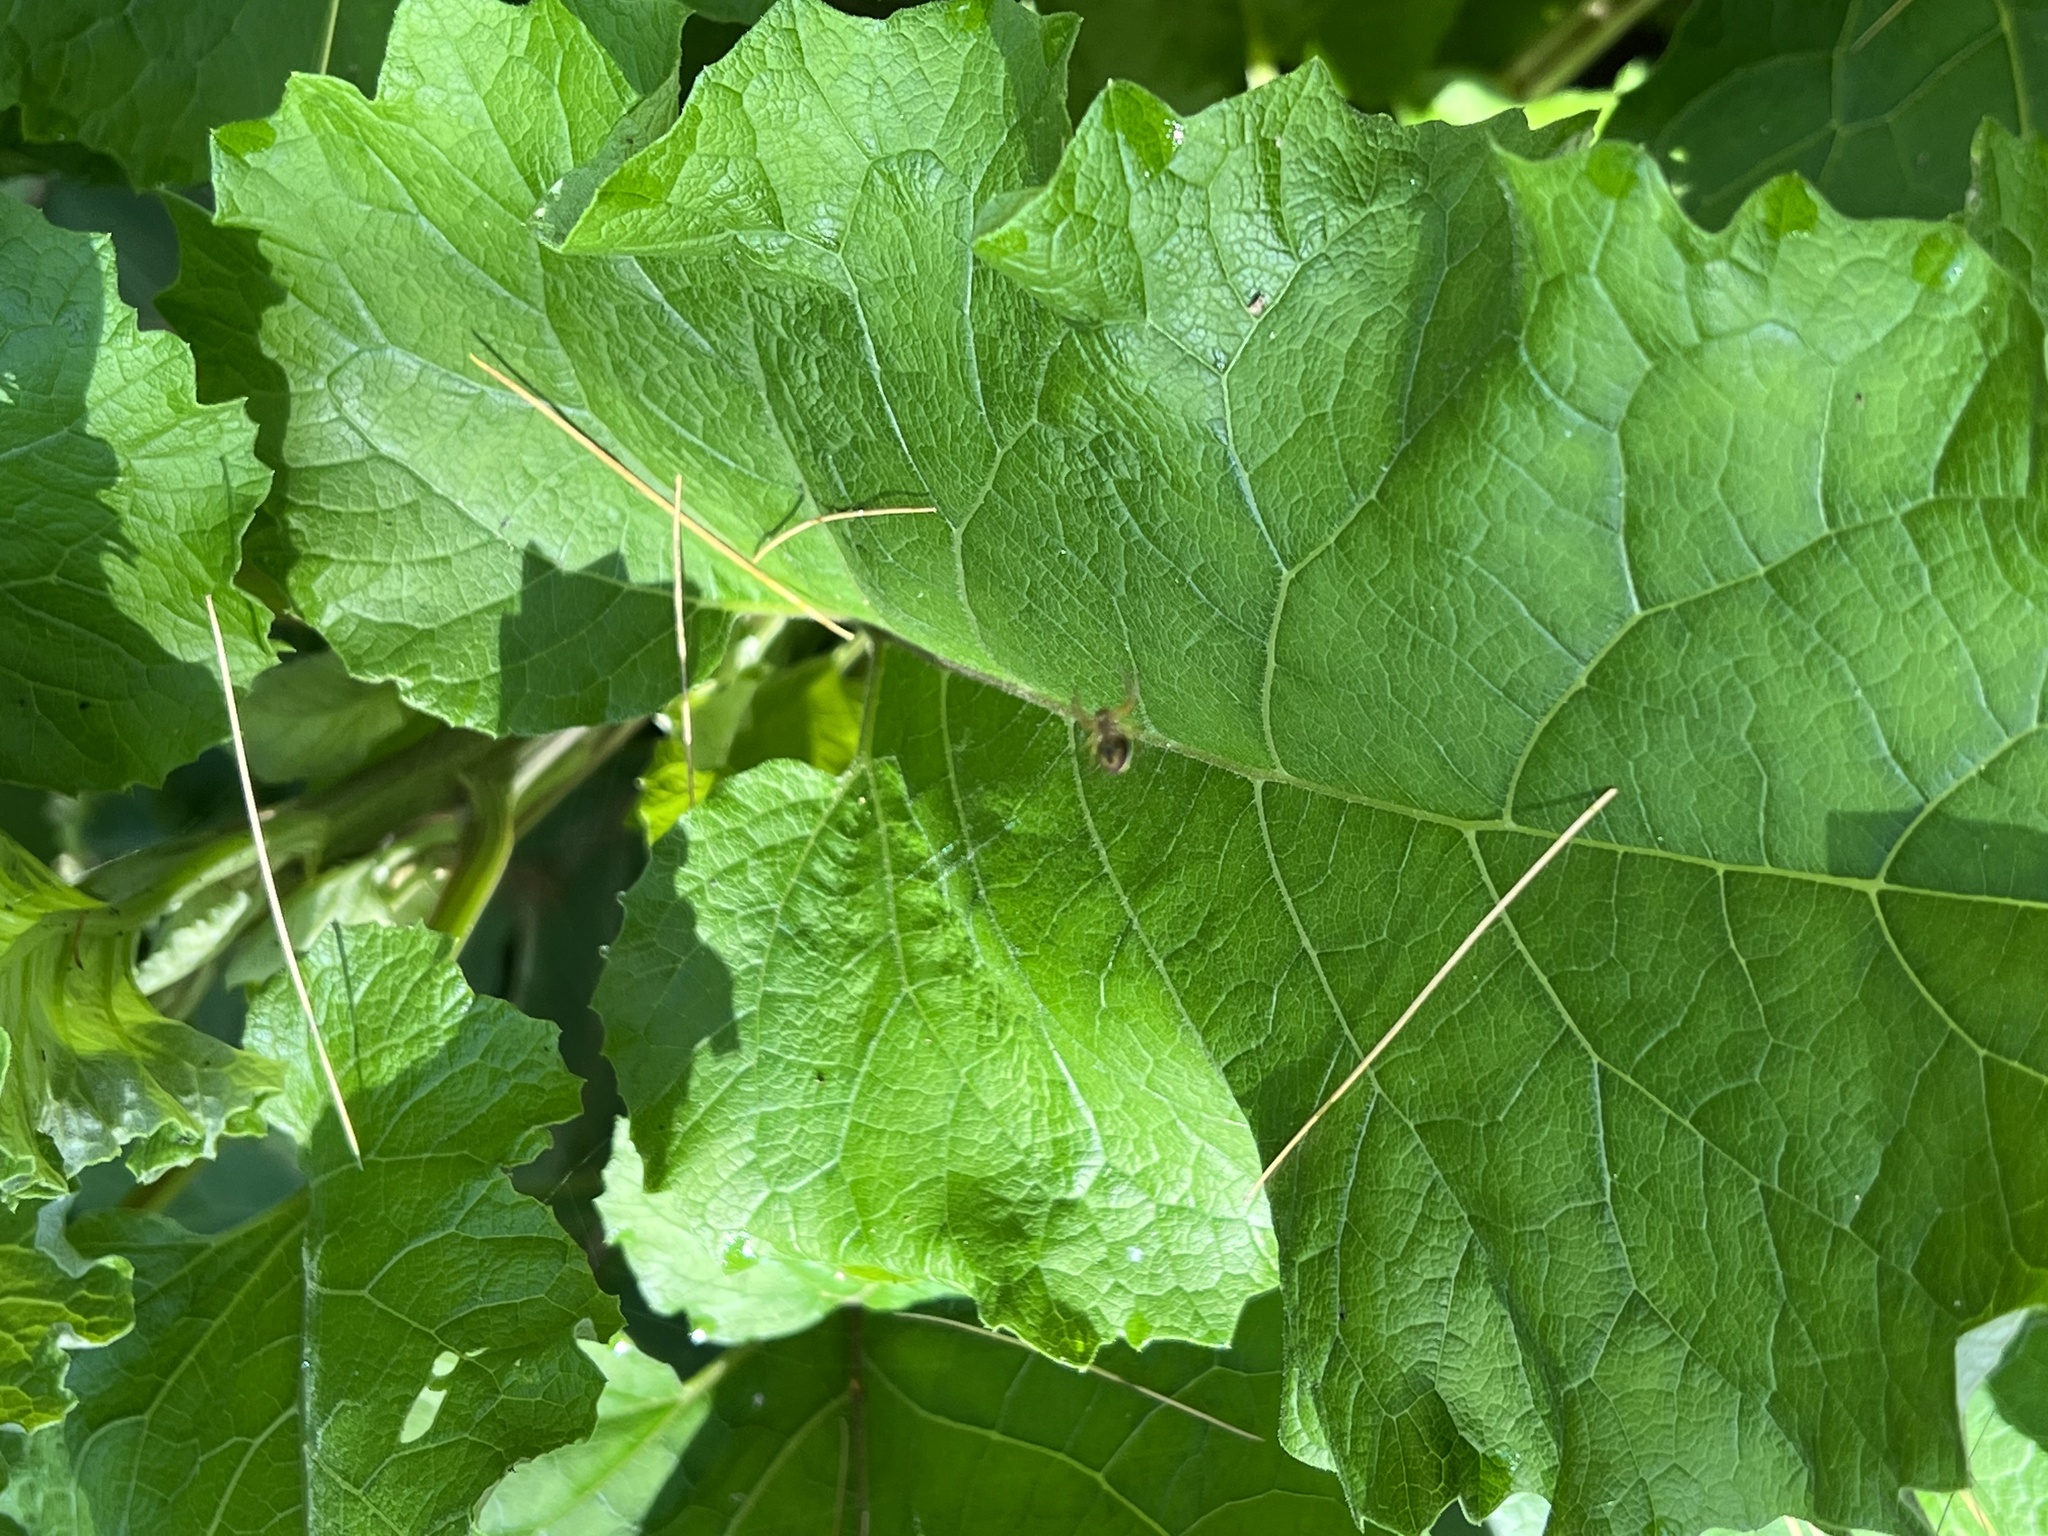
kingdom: Plantae
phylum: Tracheophyta
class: Magnoliopsida
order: Asterales
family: Asteraceae
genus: Arctium
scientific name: Arctium
